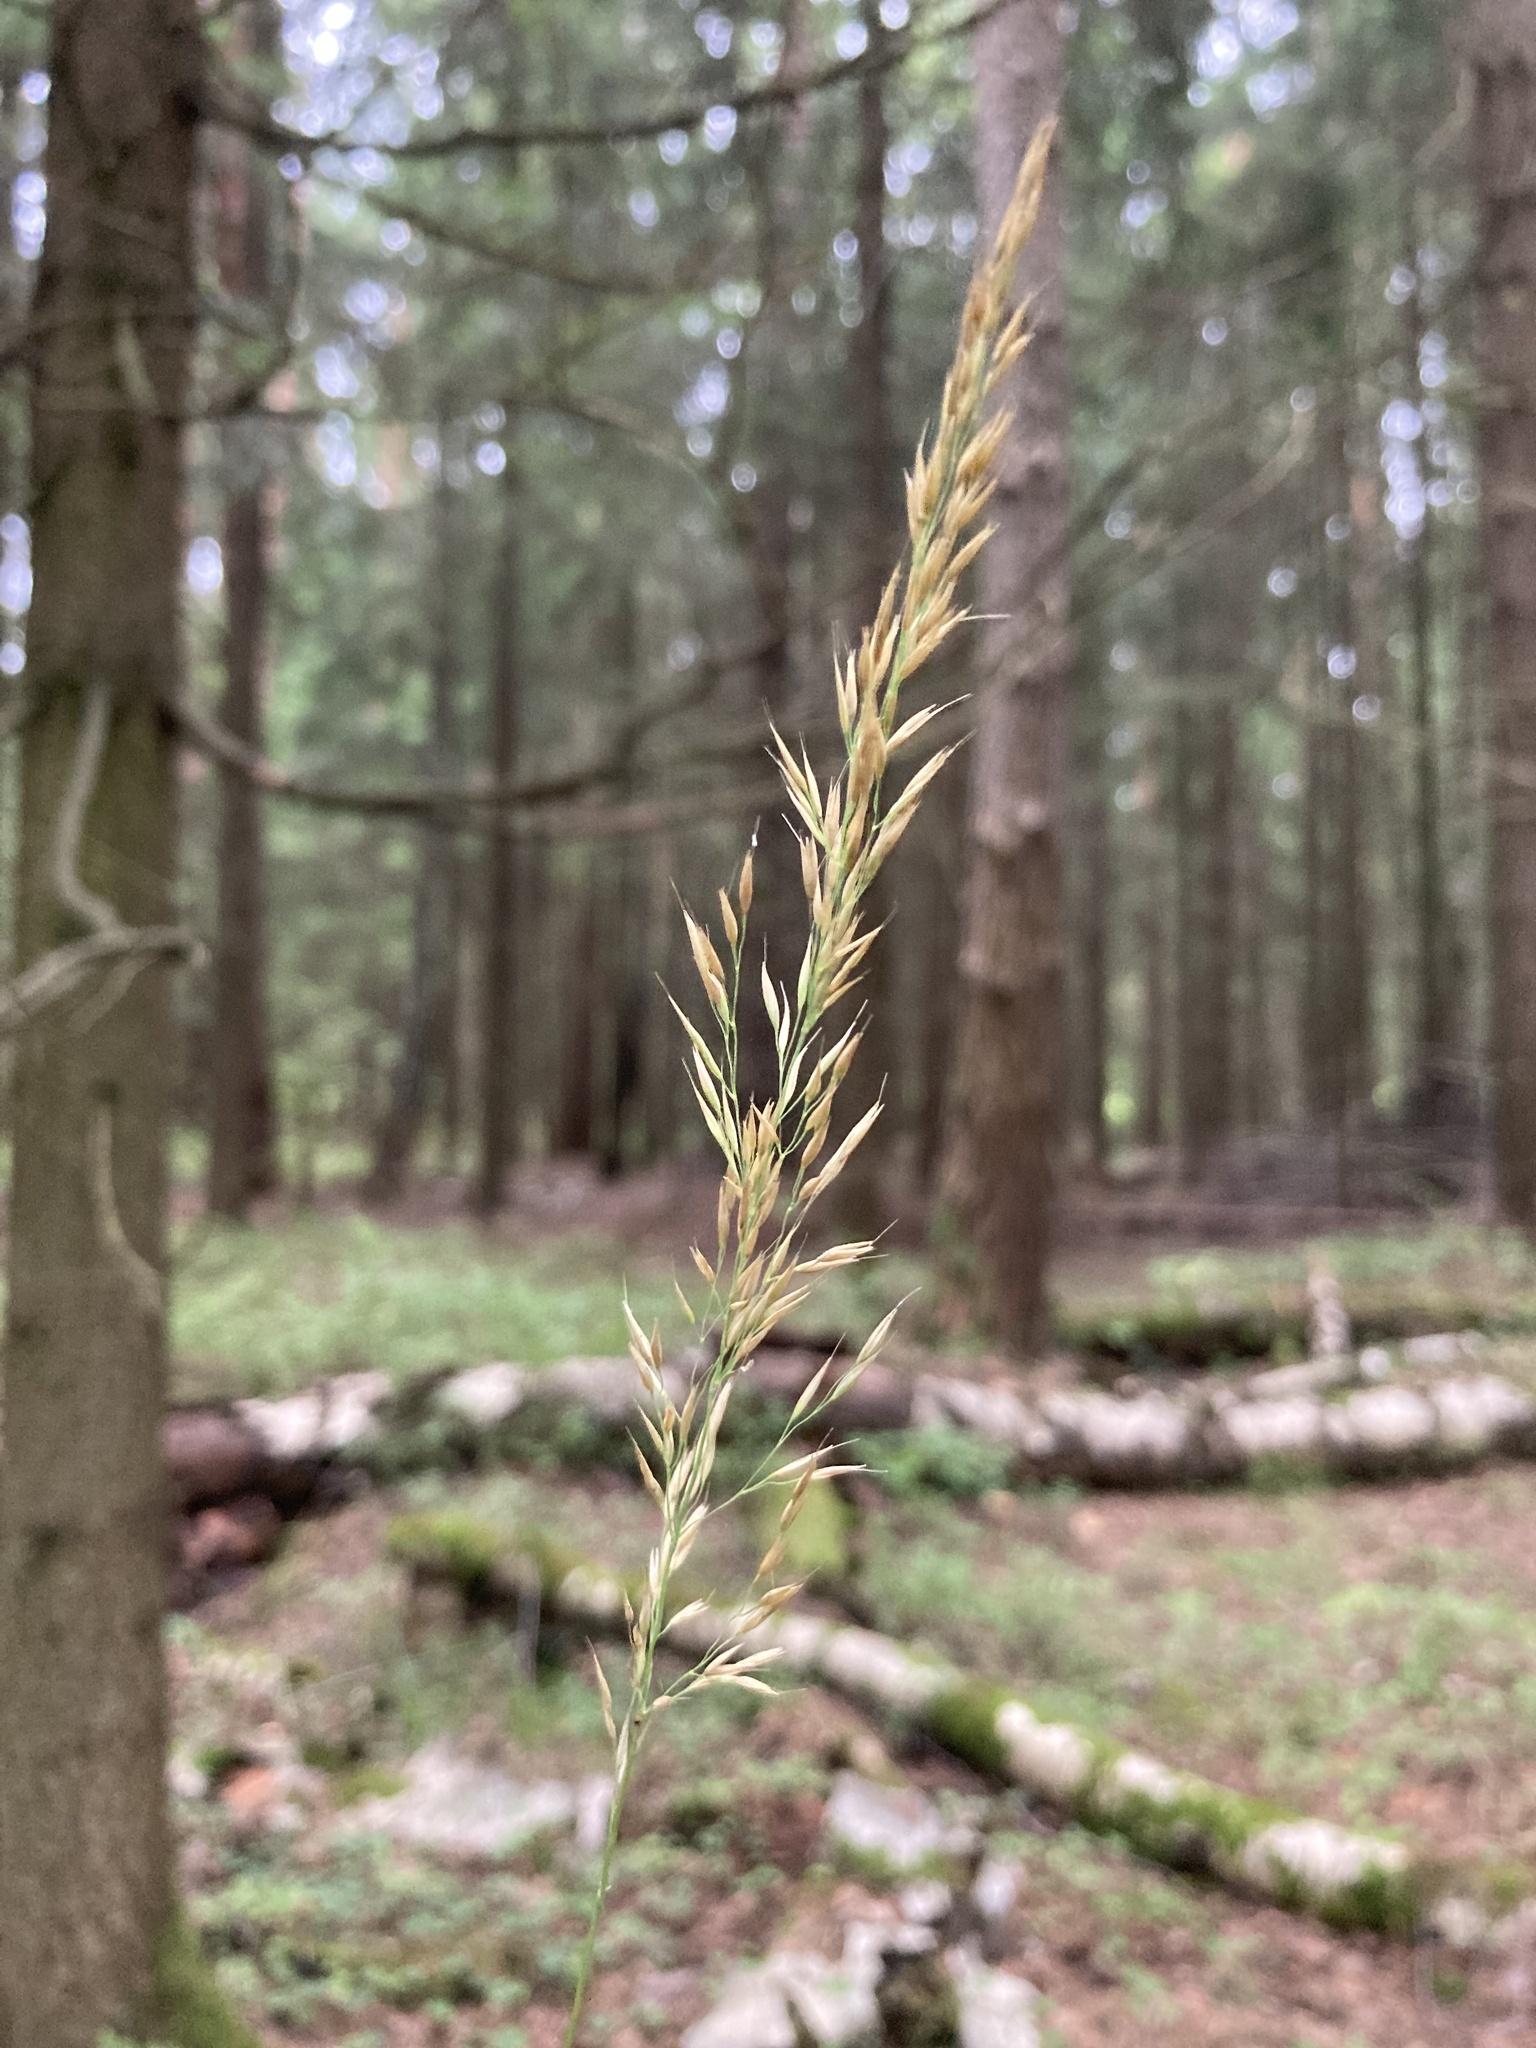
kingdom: Plantae
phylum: Tracheophyta
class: Liliopsida
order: Poales
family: Poaceae
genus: Calamagrostis
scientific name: Calamagrostis arundinacea
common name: Metskastik
